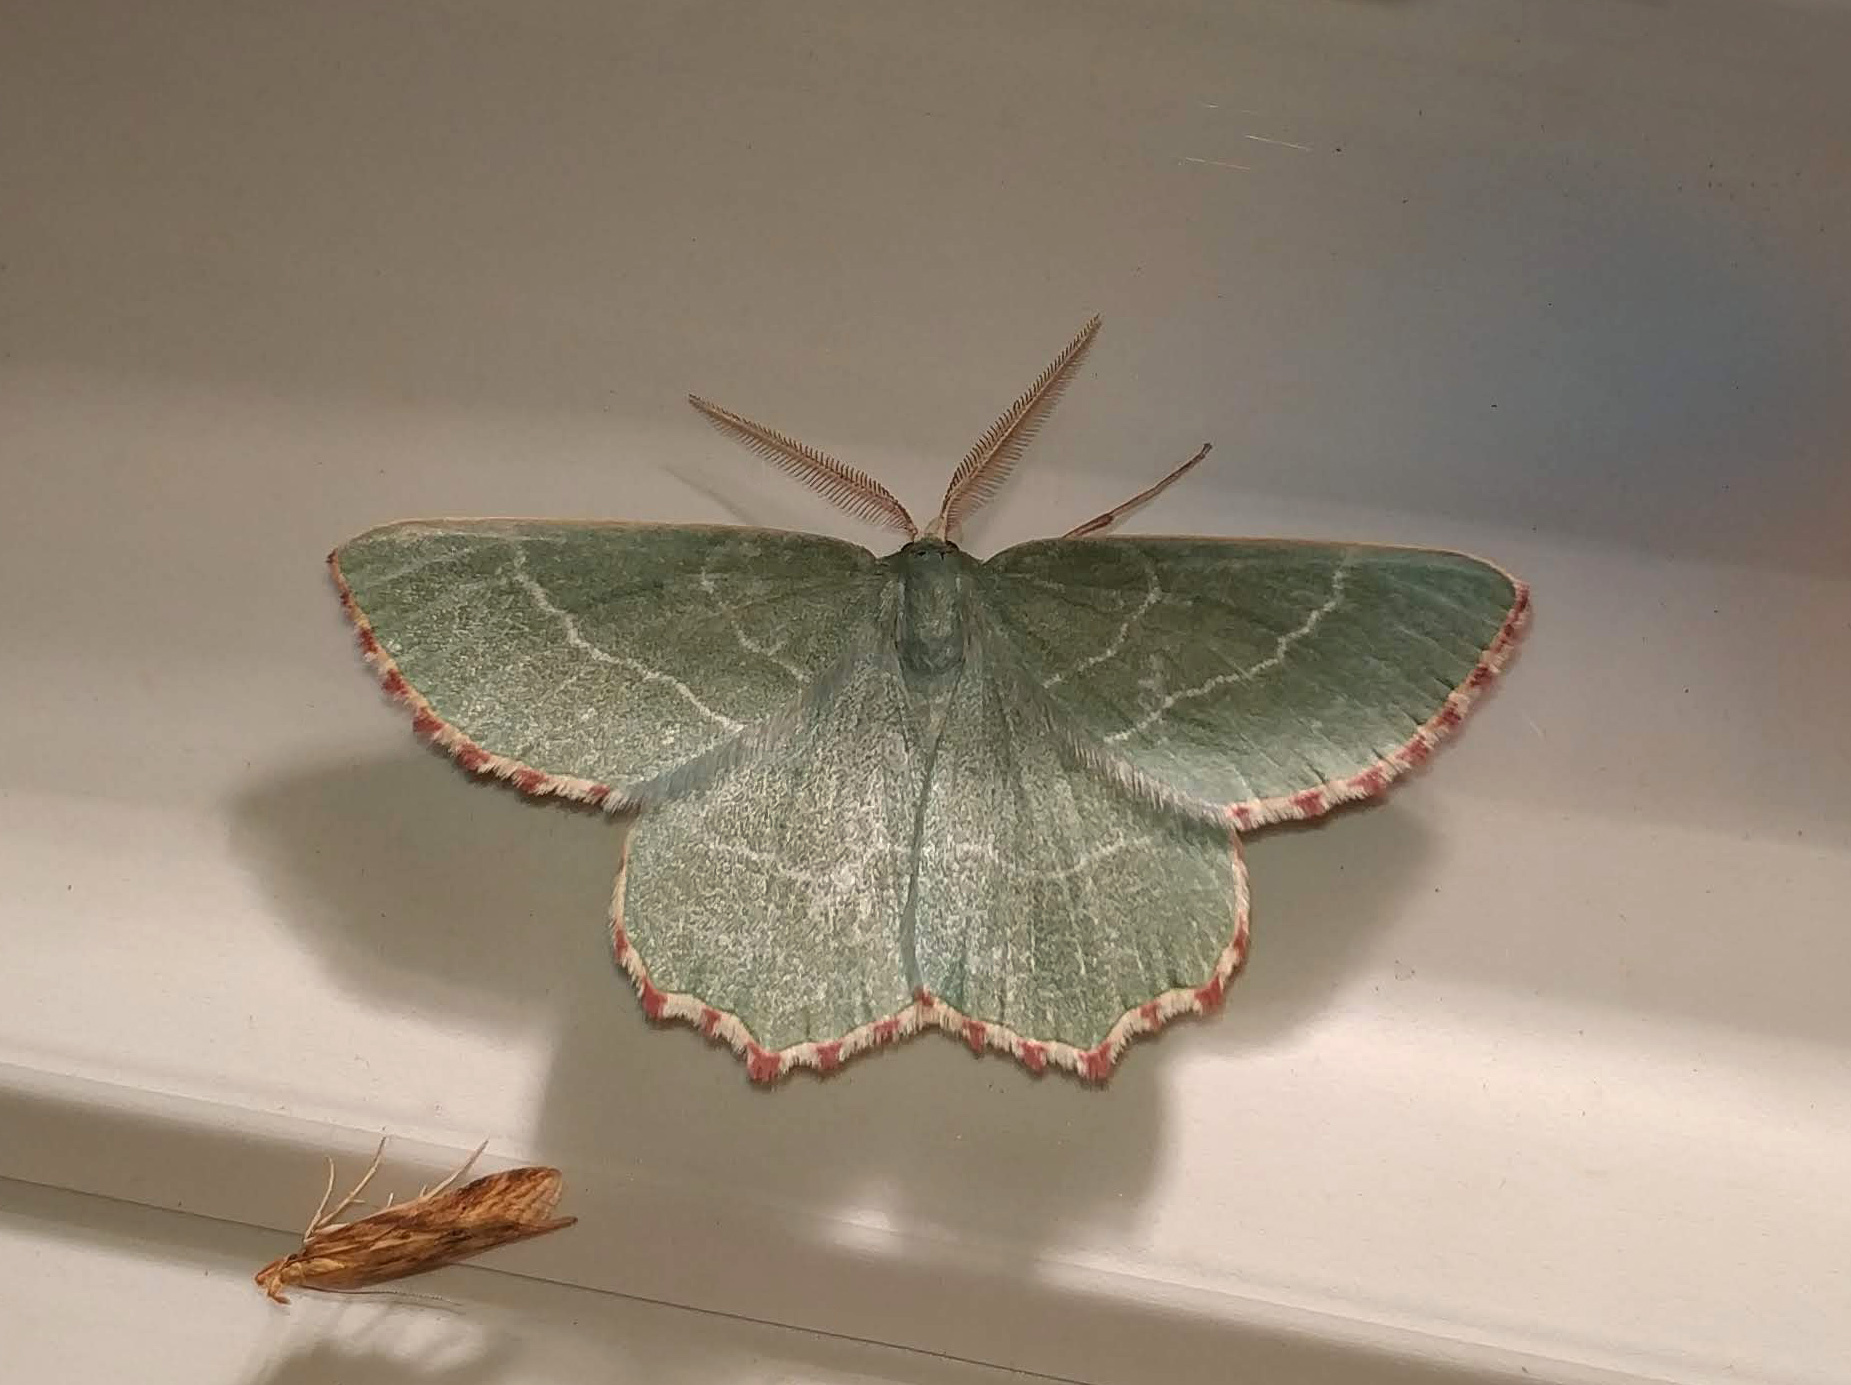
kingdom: Animalia
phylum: Arthropoda
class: Insecta
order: Lepidoptera
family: Geometridae
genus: Thalera
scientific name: Thalera fimbrialis
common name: Sussex emerald
